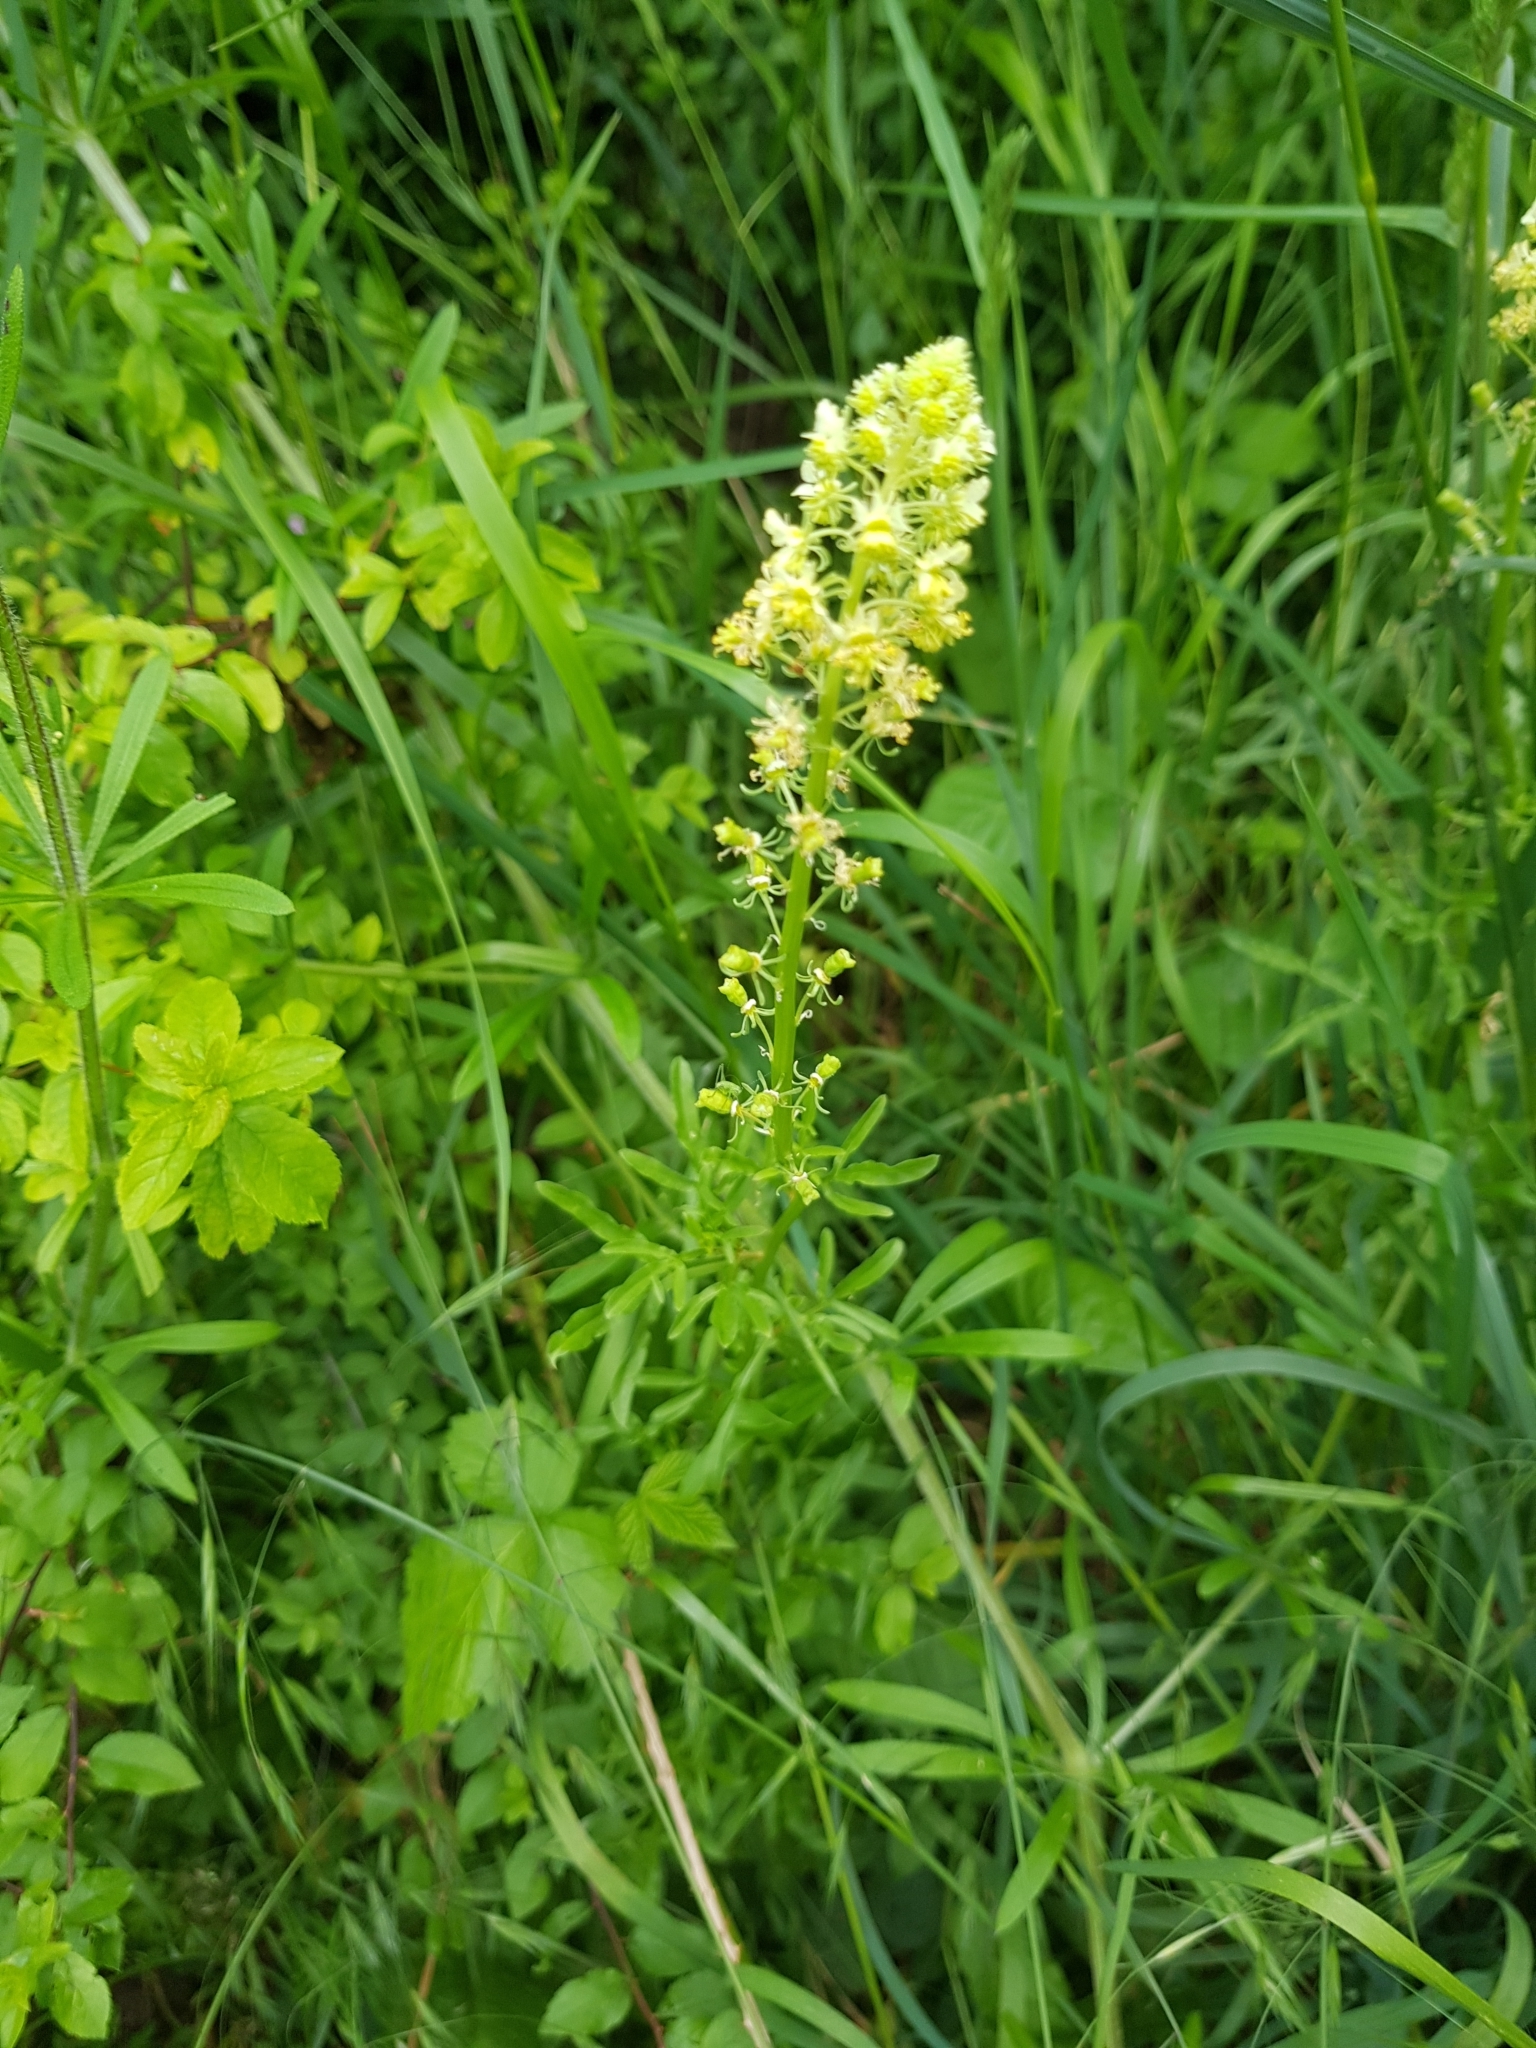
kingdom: Plantae
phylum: Tracheophyta
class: Magnoliopsida
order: Brassicales
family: Resedaceae
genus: Reseda
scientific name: Reseda lutea
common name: Wild mignonette
